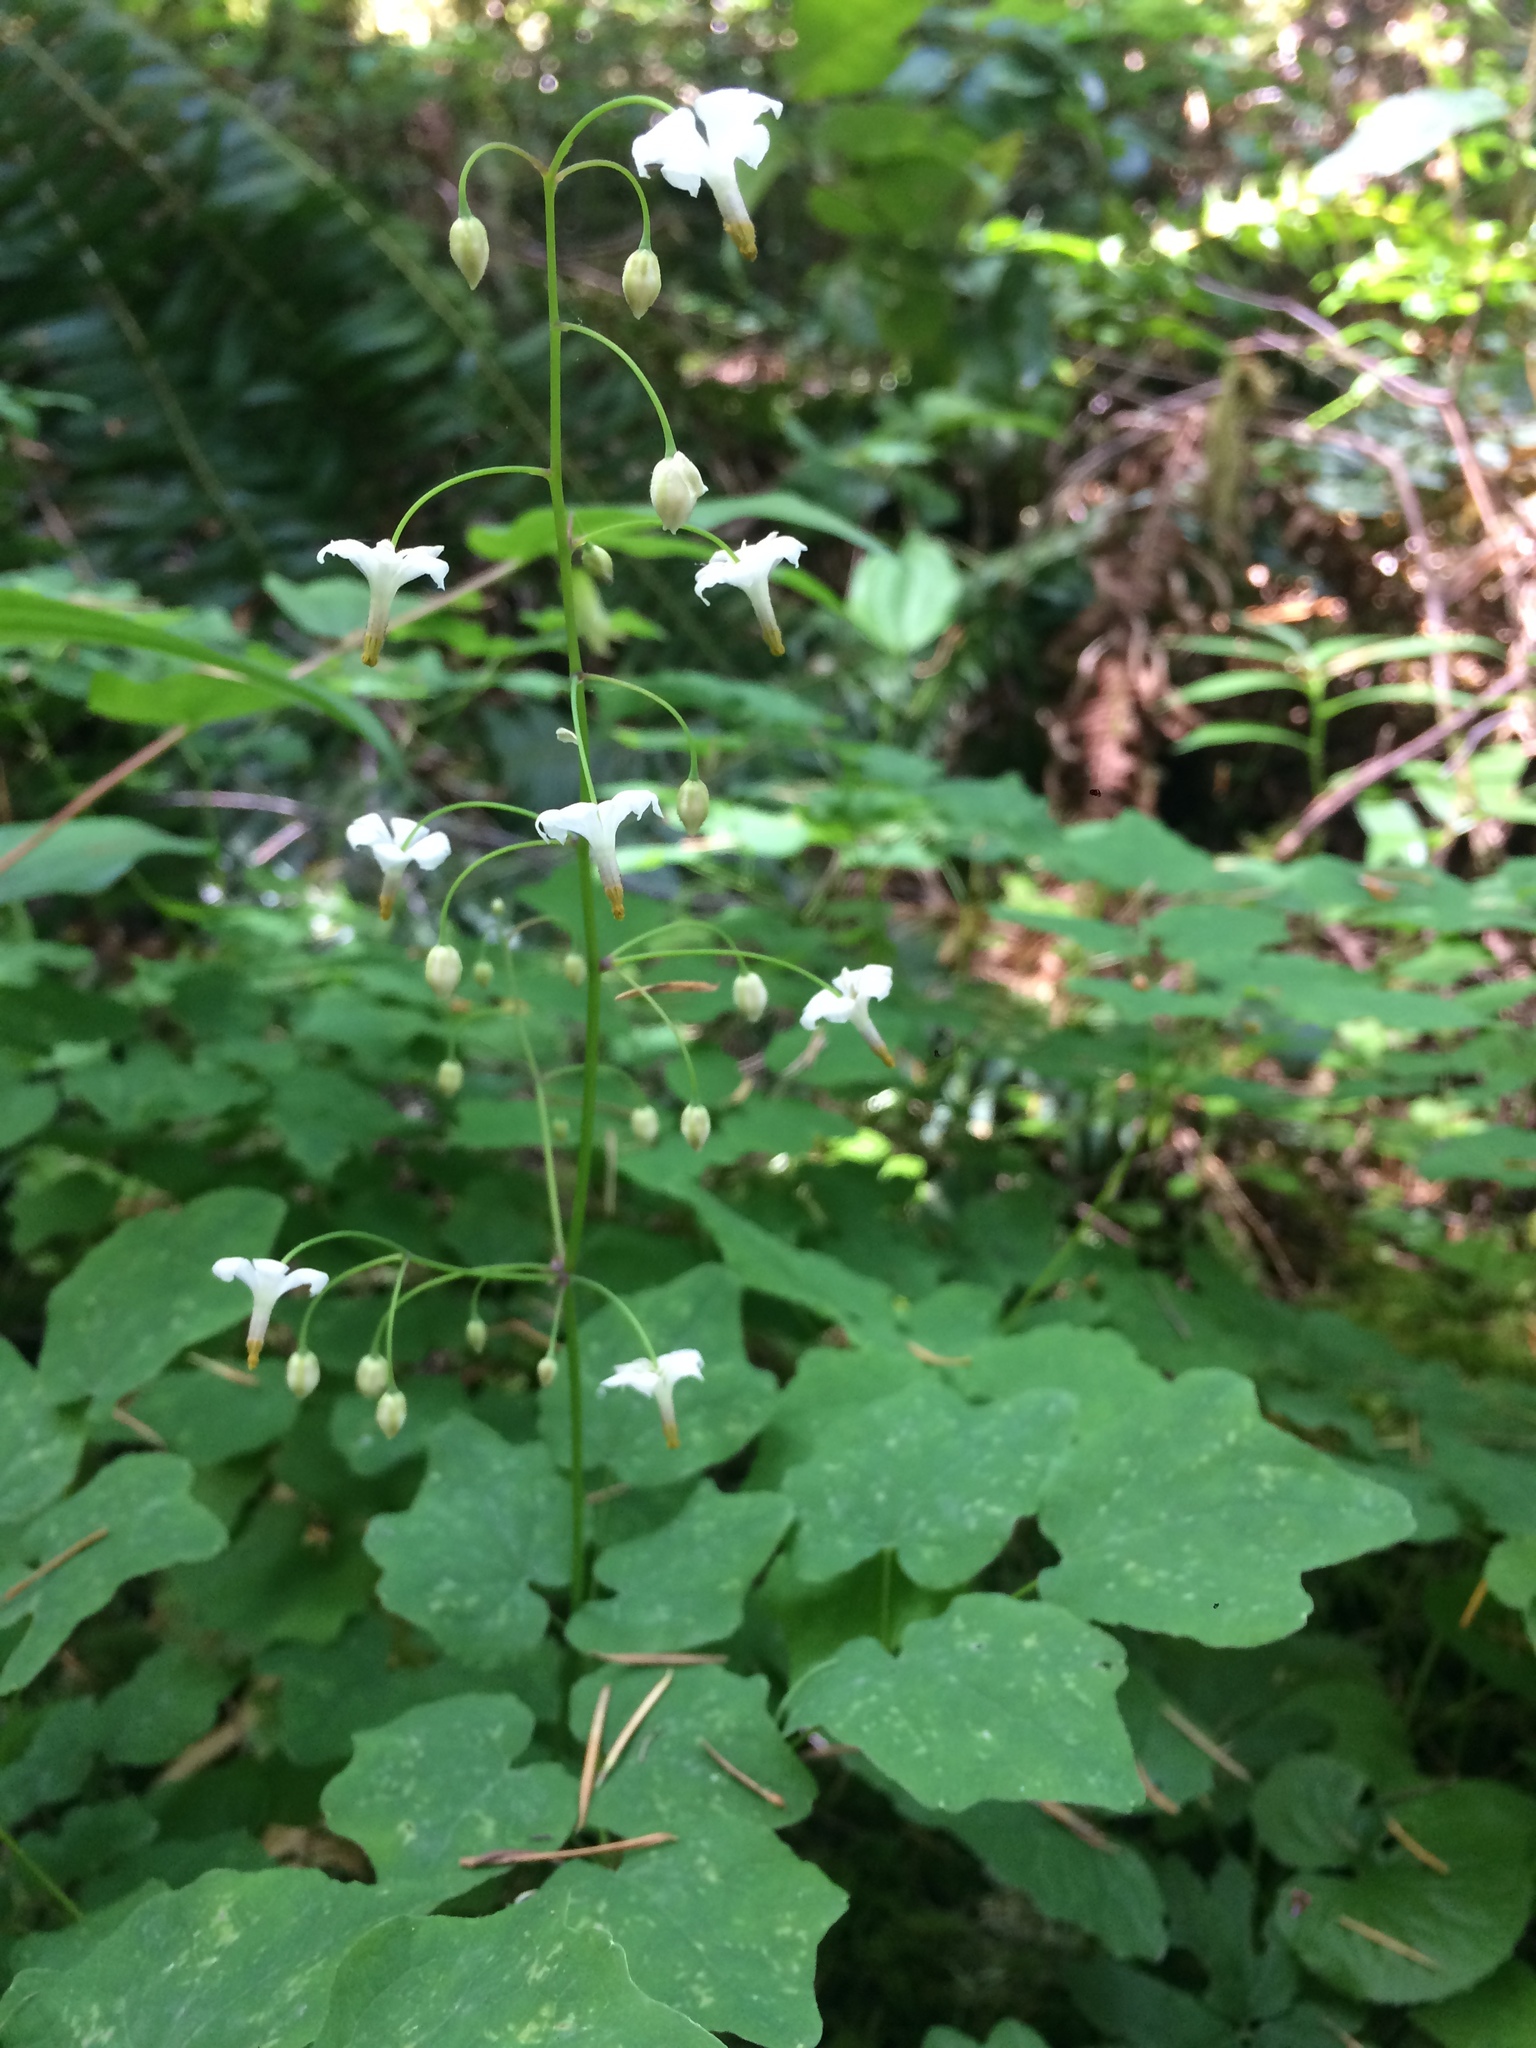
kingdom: Plantae
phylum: Tracheophyta
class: Magnoliopsida
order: Ranunculales
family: Berberidaceae
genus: Vancouveria
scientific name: Vancouveria hexandra
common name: Northern inside-out-flower
